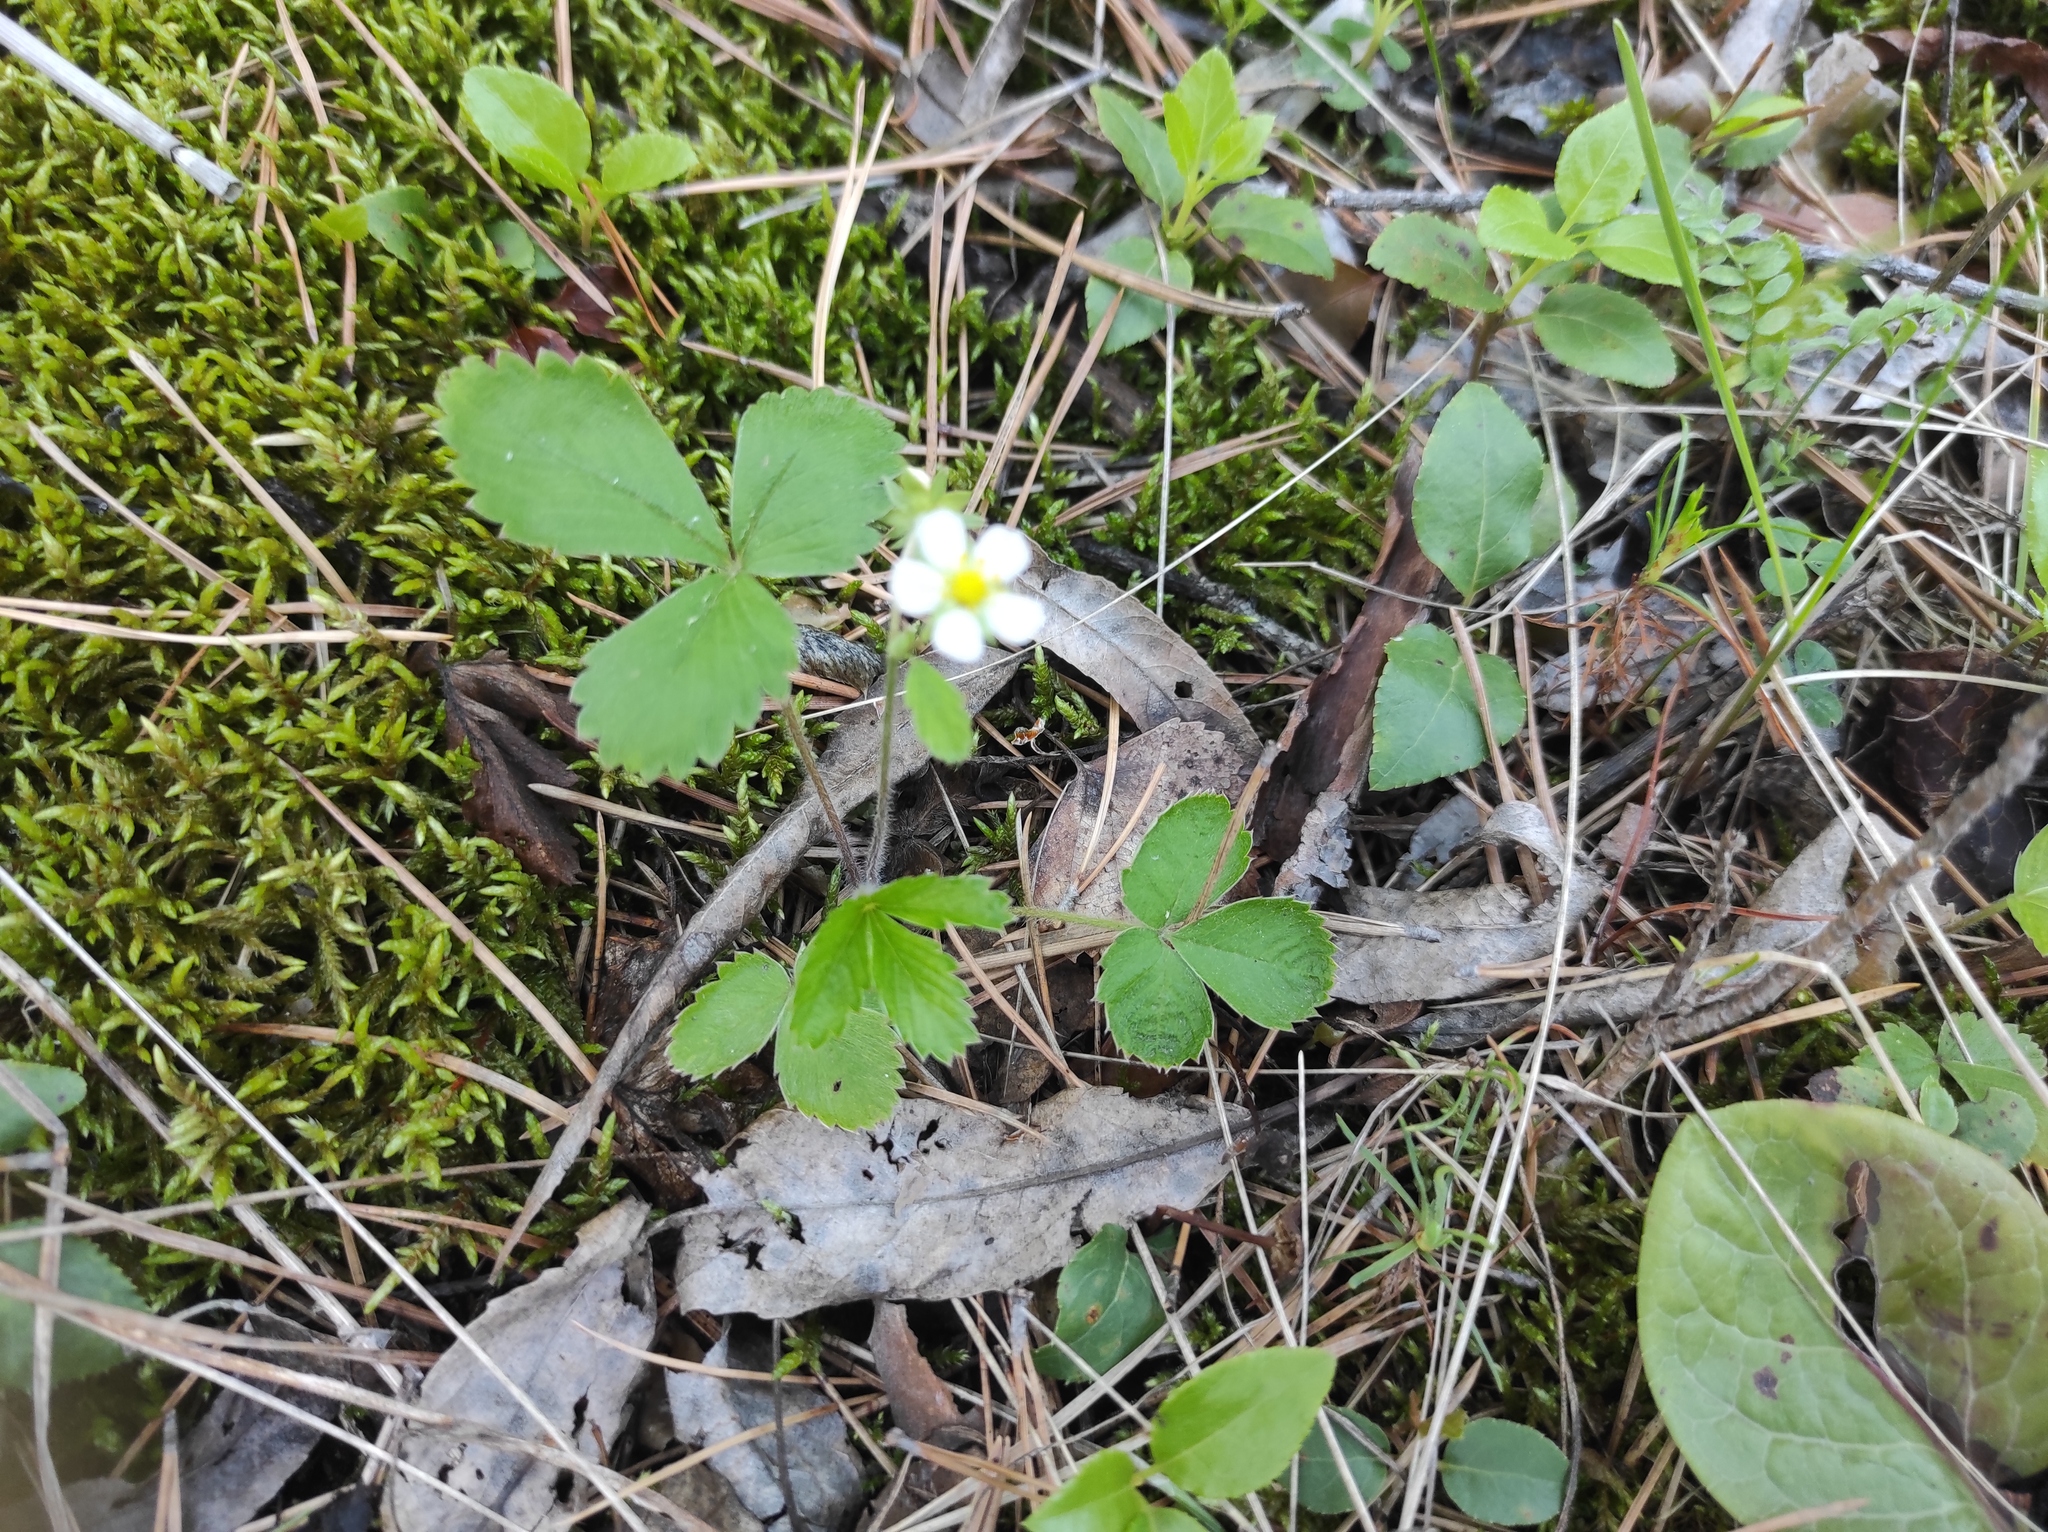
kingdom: Plantae
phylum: Tracheophyta
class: Magnoliopsida
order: Rosales
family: Rosaceae
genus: Fragaria
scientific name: Fragaria vesca
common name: Wild strawberry
